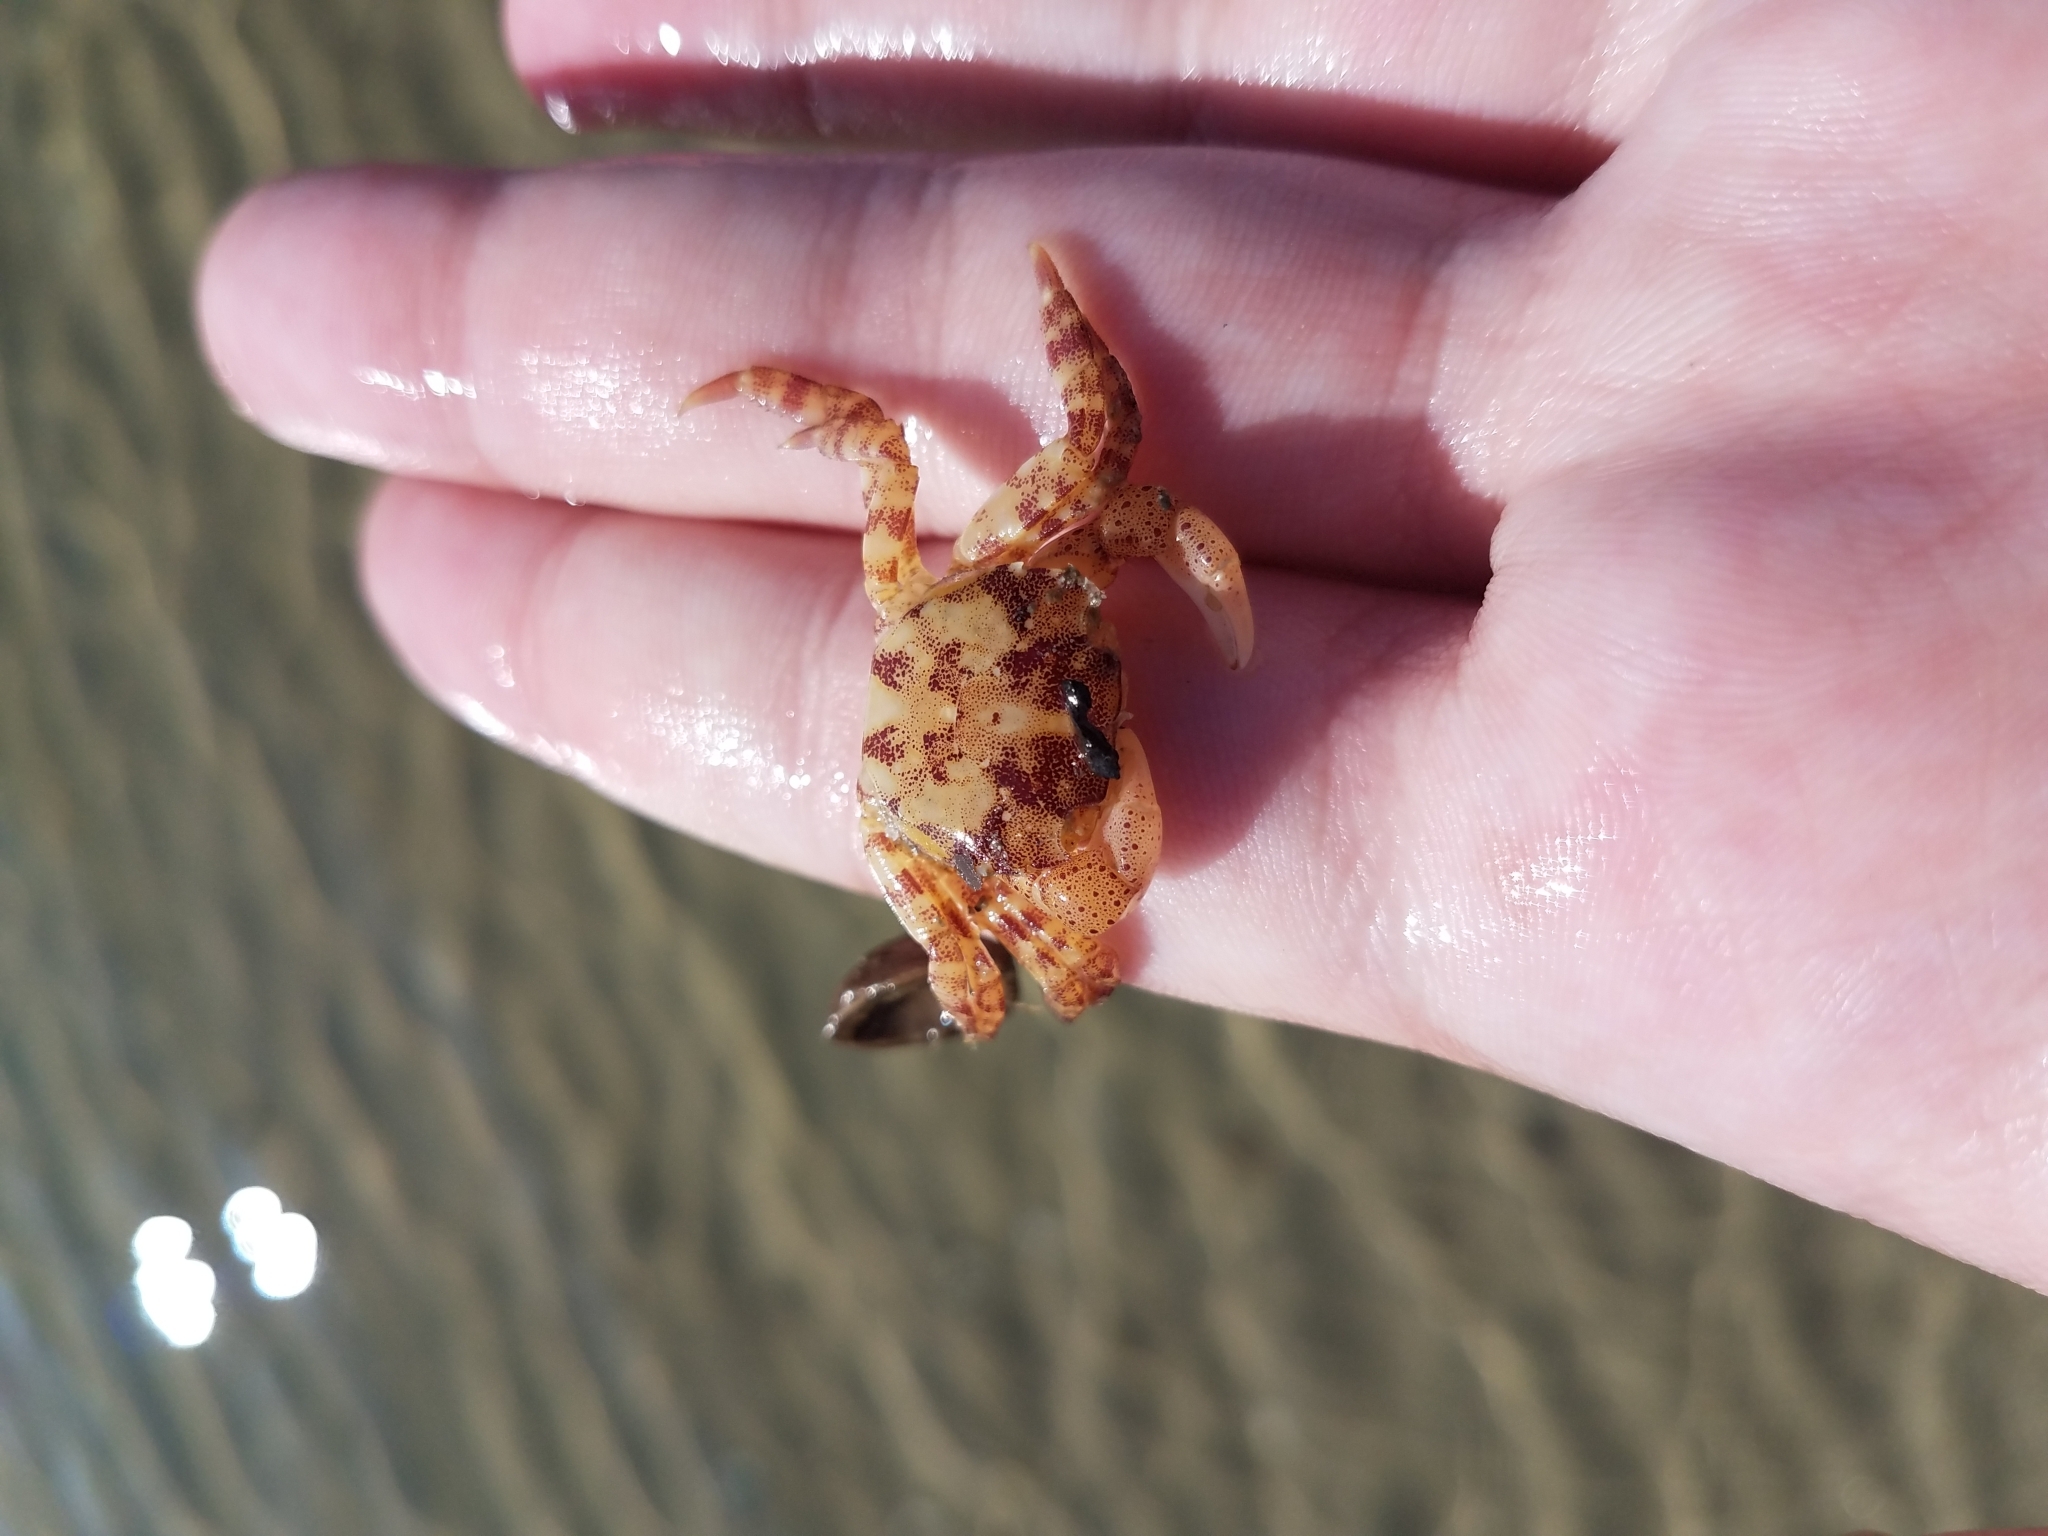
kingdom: Animalia
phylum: Arthropoda
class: Malacostraca
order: Decapoda
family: Varunidae
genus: Hemigrapsus
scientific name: Hemigrapsus sanguineus
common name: Asian shore crab
